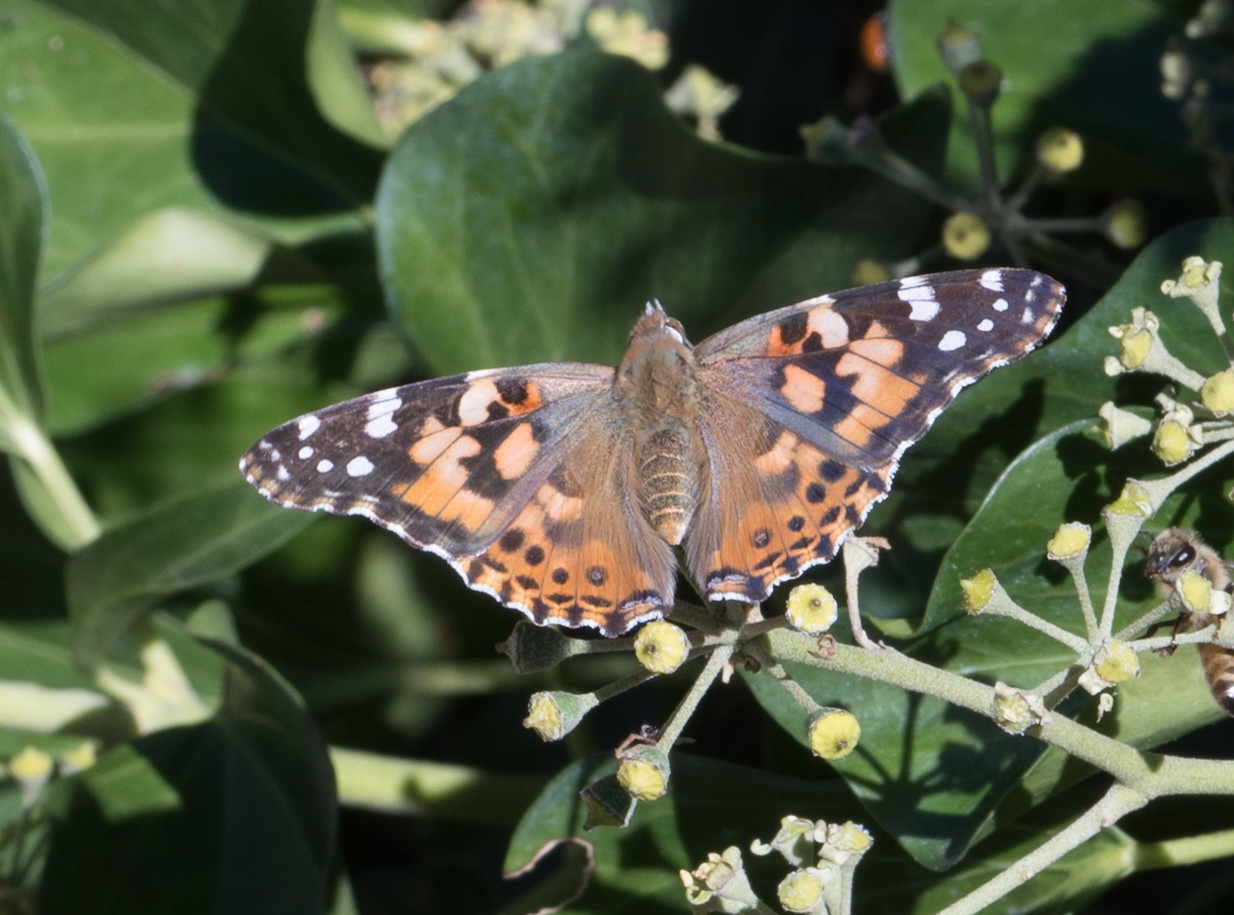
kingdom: Animalia
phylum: Arthropoda
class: Insecta
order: Lepidoptera
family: Nymphalidae
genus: Vanessa
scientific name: Vanessa cardui
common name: Painted lady
